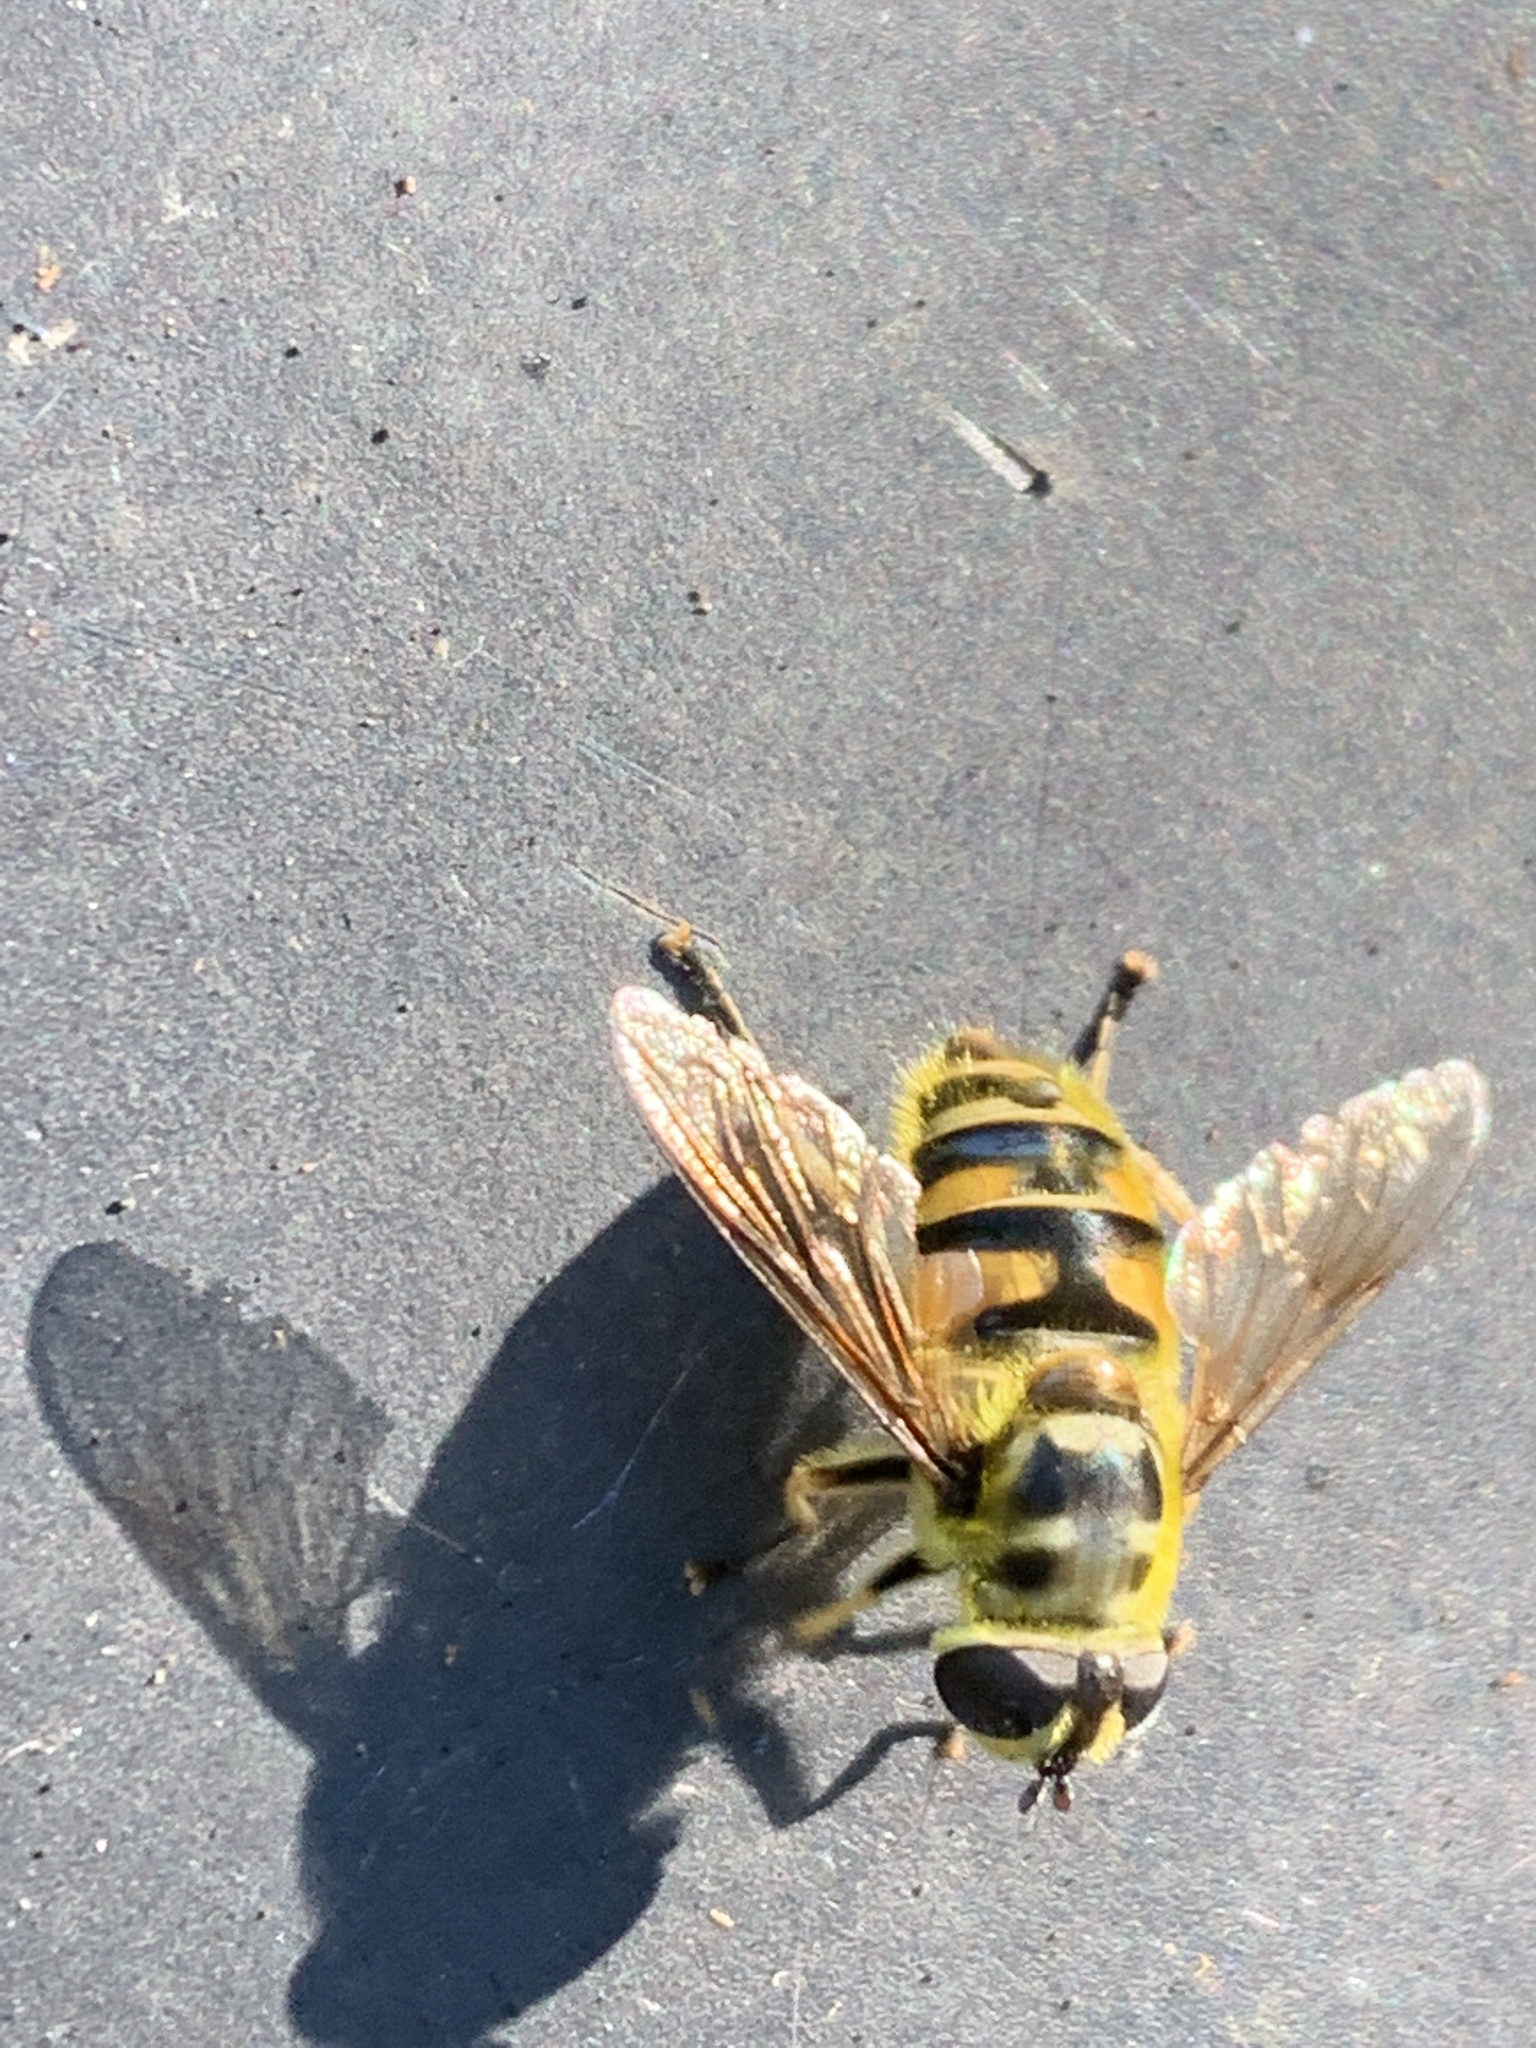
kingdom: Animalia
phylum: Arthropoda
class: Insecta
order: Diptera
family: Syrphidae
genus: Myathropa
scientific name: Myathropa florea
